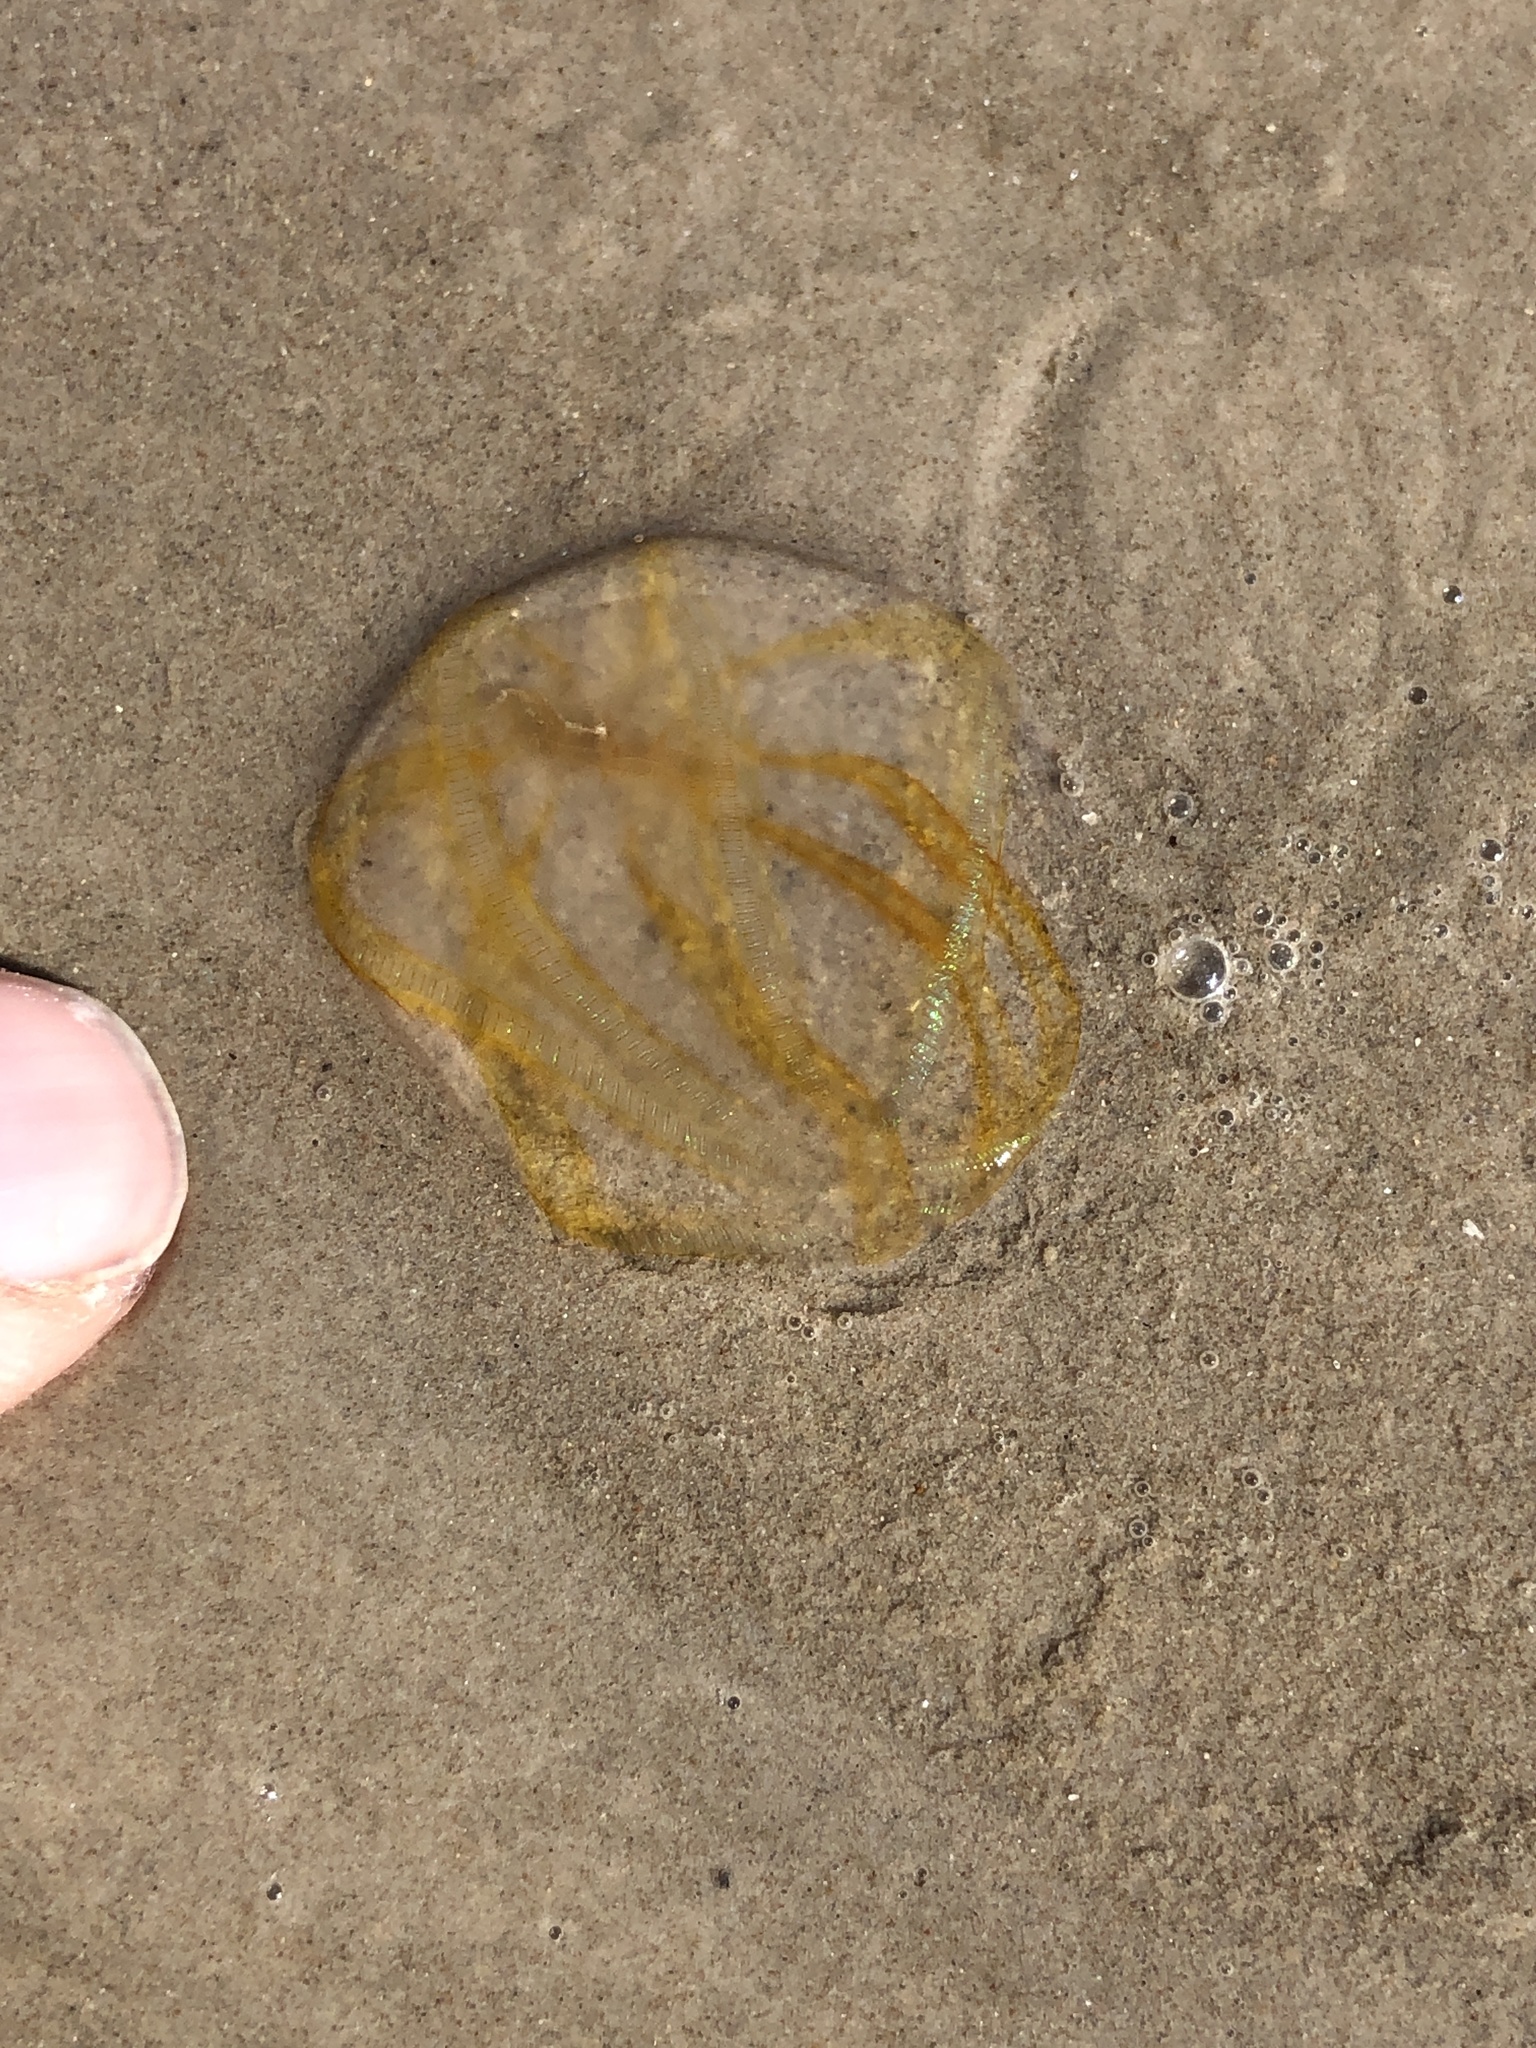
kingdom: Animalia
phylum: Ctenophora
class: Nuda
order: Beroida
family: Beroidae
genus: Beroe
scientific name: Beroe ovata
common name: Flattened helmet comb jelly
